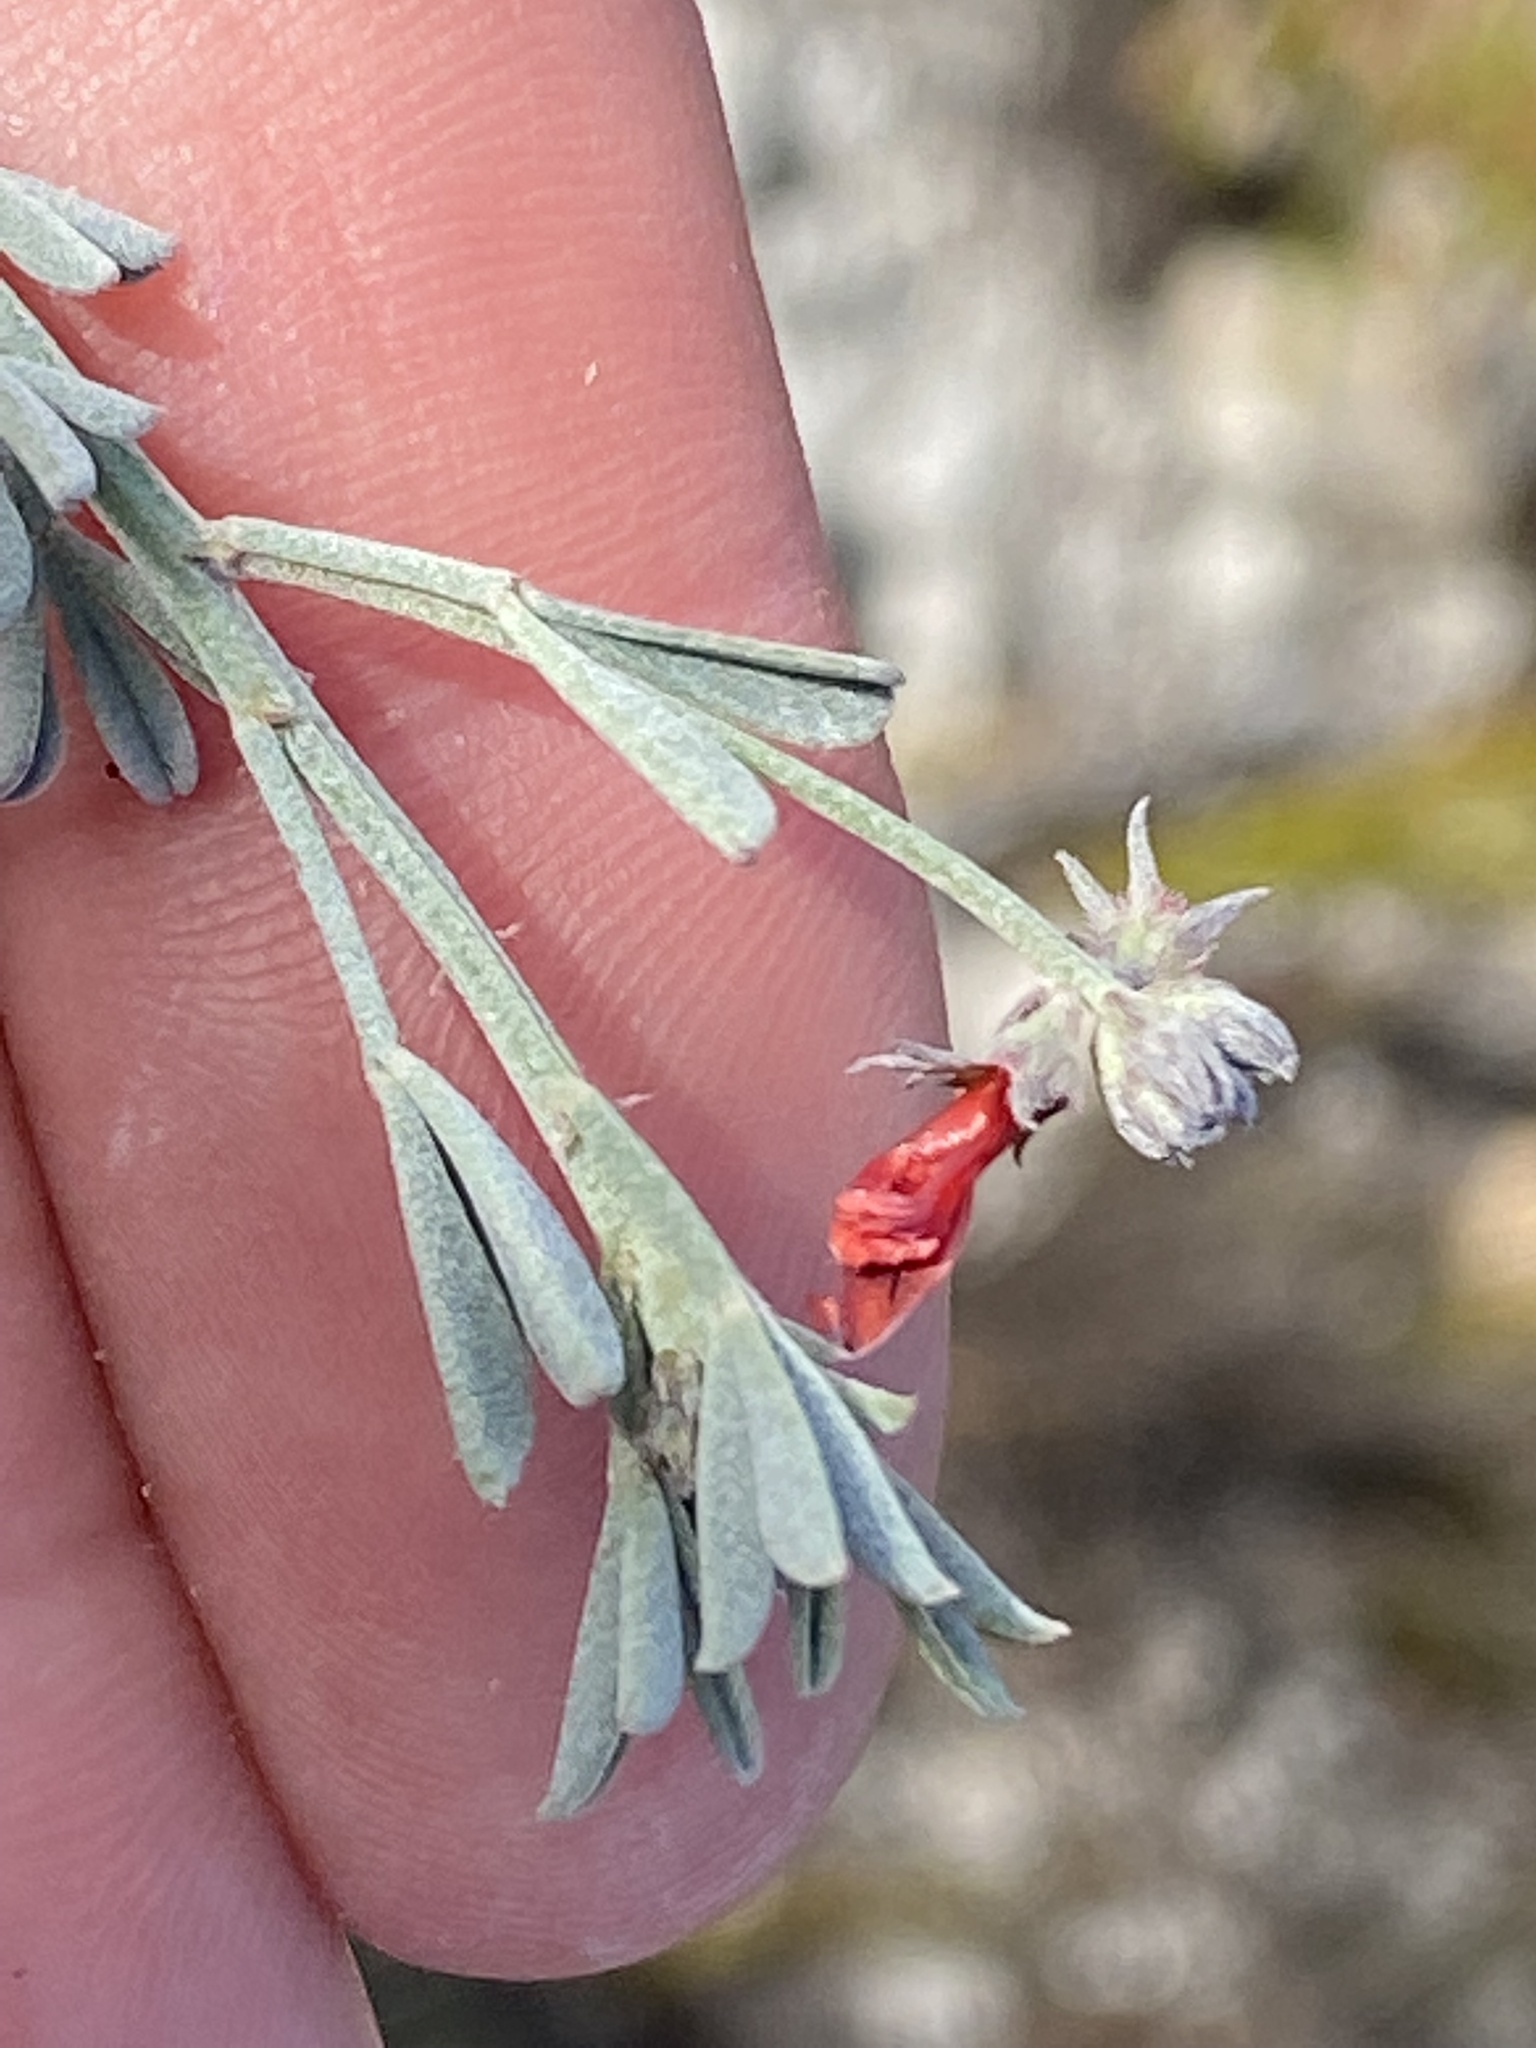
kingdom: Plantae
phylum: Tracheophyta
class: Magnoliopsida
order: Fabales
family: Fabaceae
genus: Indigofera
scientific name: Indigofera heterophylla
